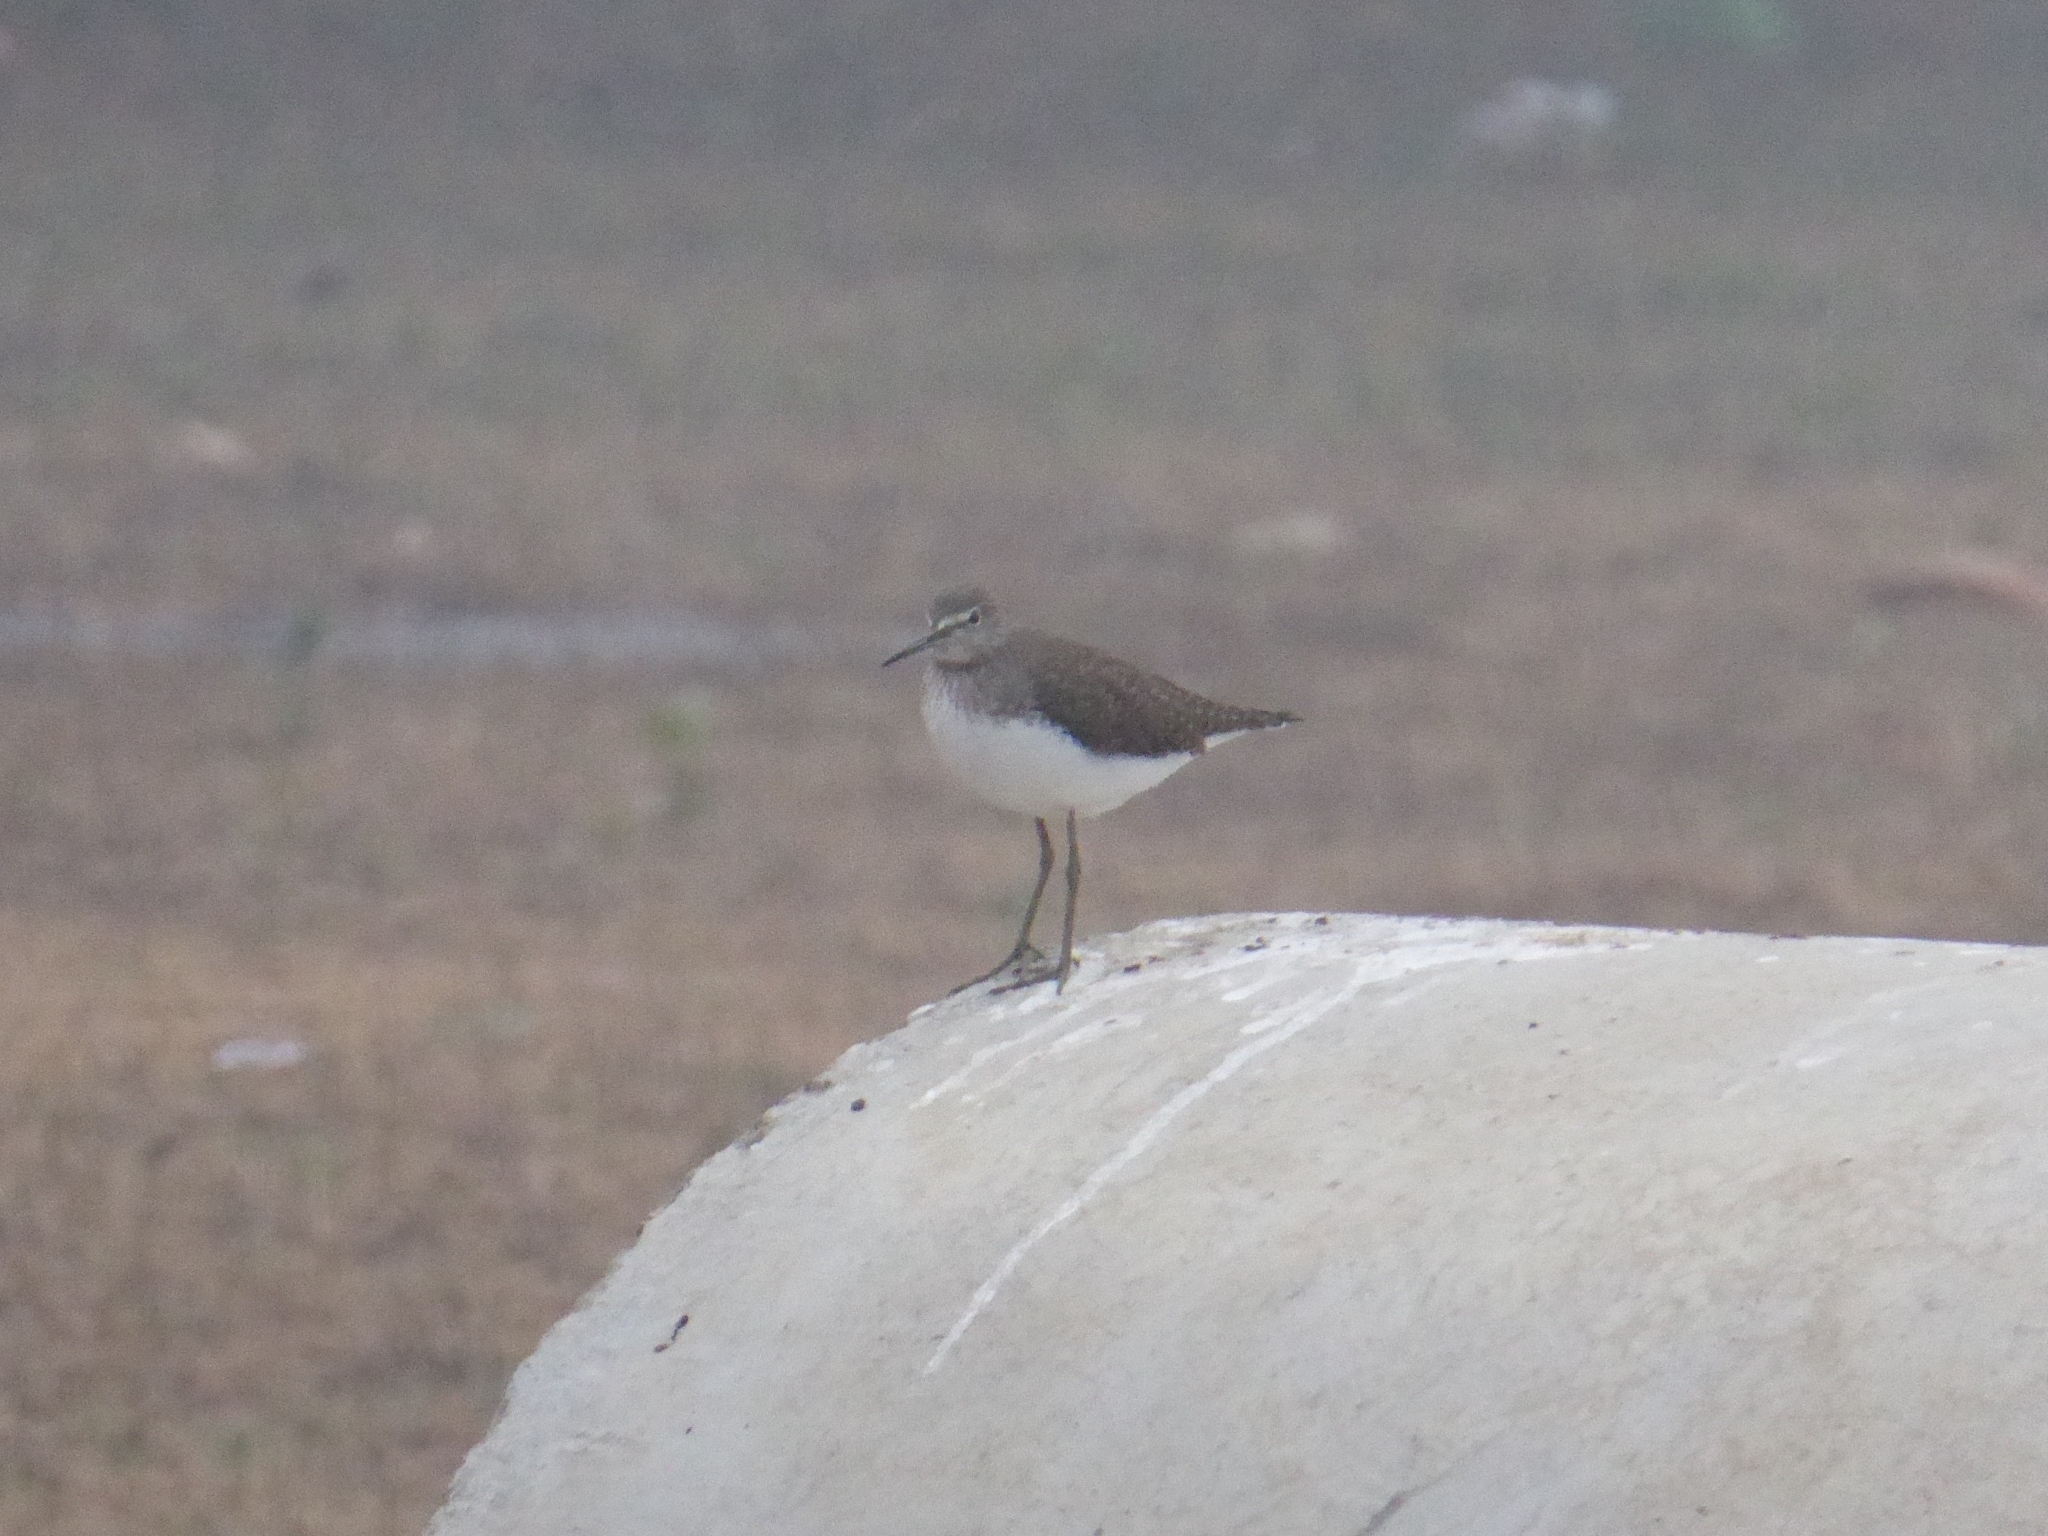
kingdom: Animalia
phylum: Chordata
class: Aves
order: Charadriiformes
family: Scolopacidae
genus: Tringa
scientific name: Tringa ochropus
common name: Green sandpiper
